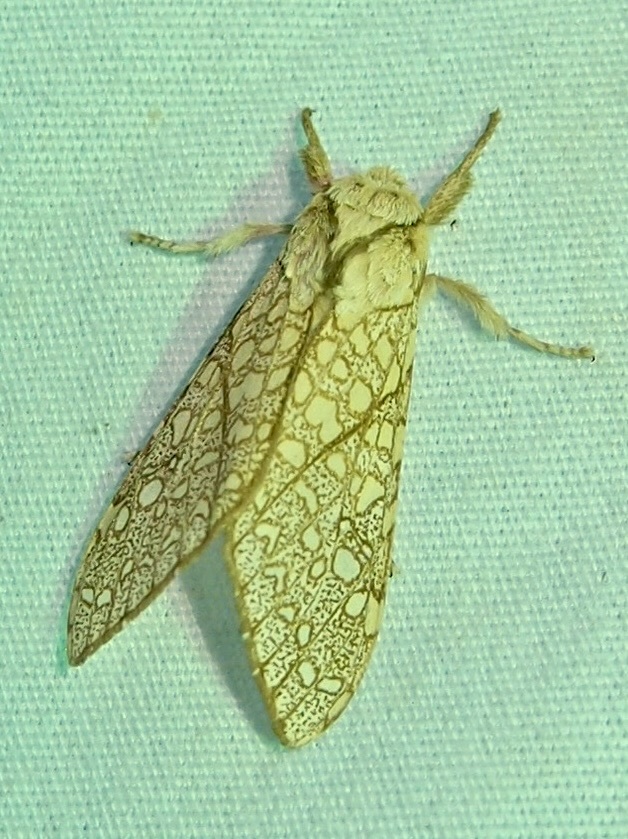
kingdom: Animalia
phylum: Arthropoda
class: Insecta
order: Lepidoptera
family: Erebidae
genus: Lophocampa
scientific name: Lophocampa mixta
